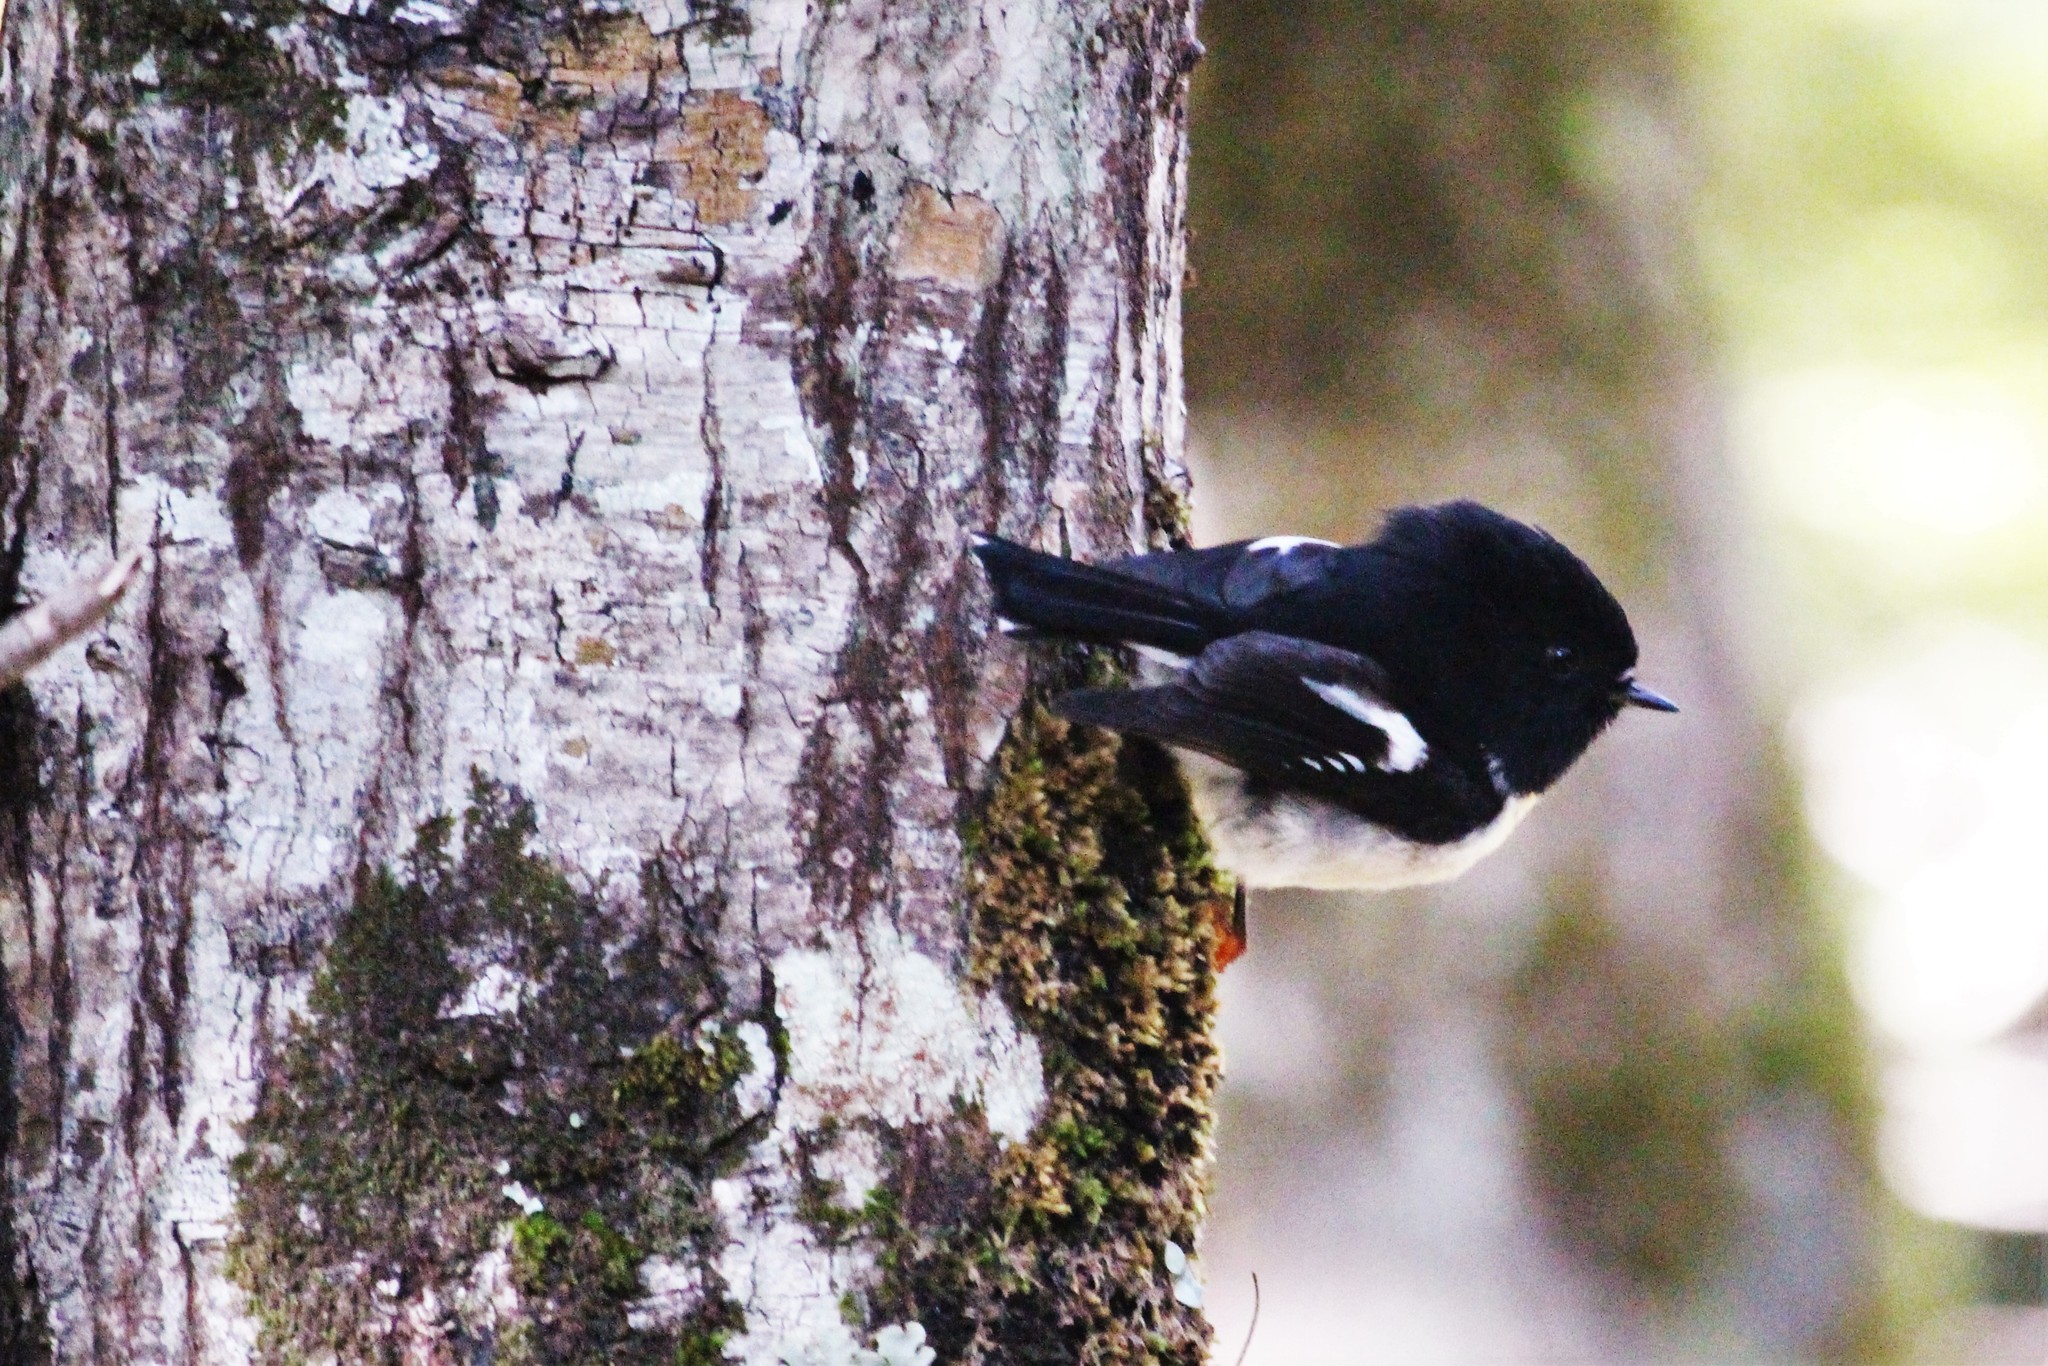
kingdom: Animalia
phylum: Chordata
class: Aves
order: Passeriformes
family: Petroicidae
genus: Petroica
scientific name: Petroica macrocephala
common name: Tomtit
